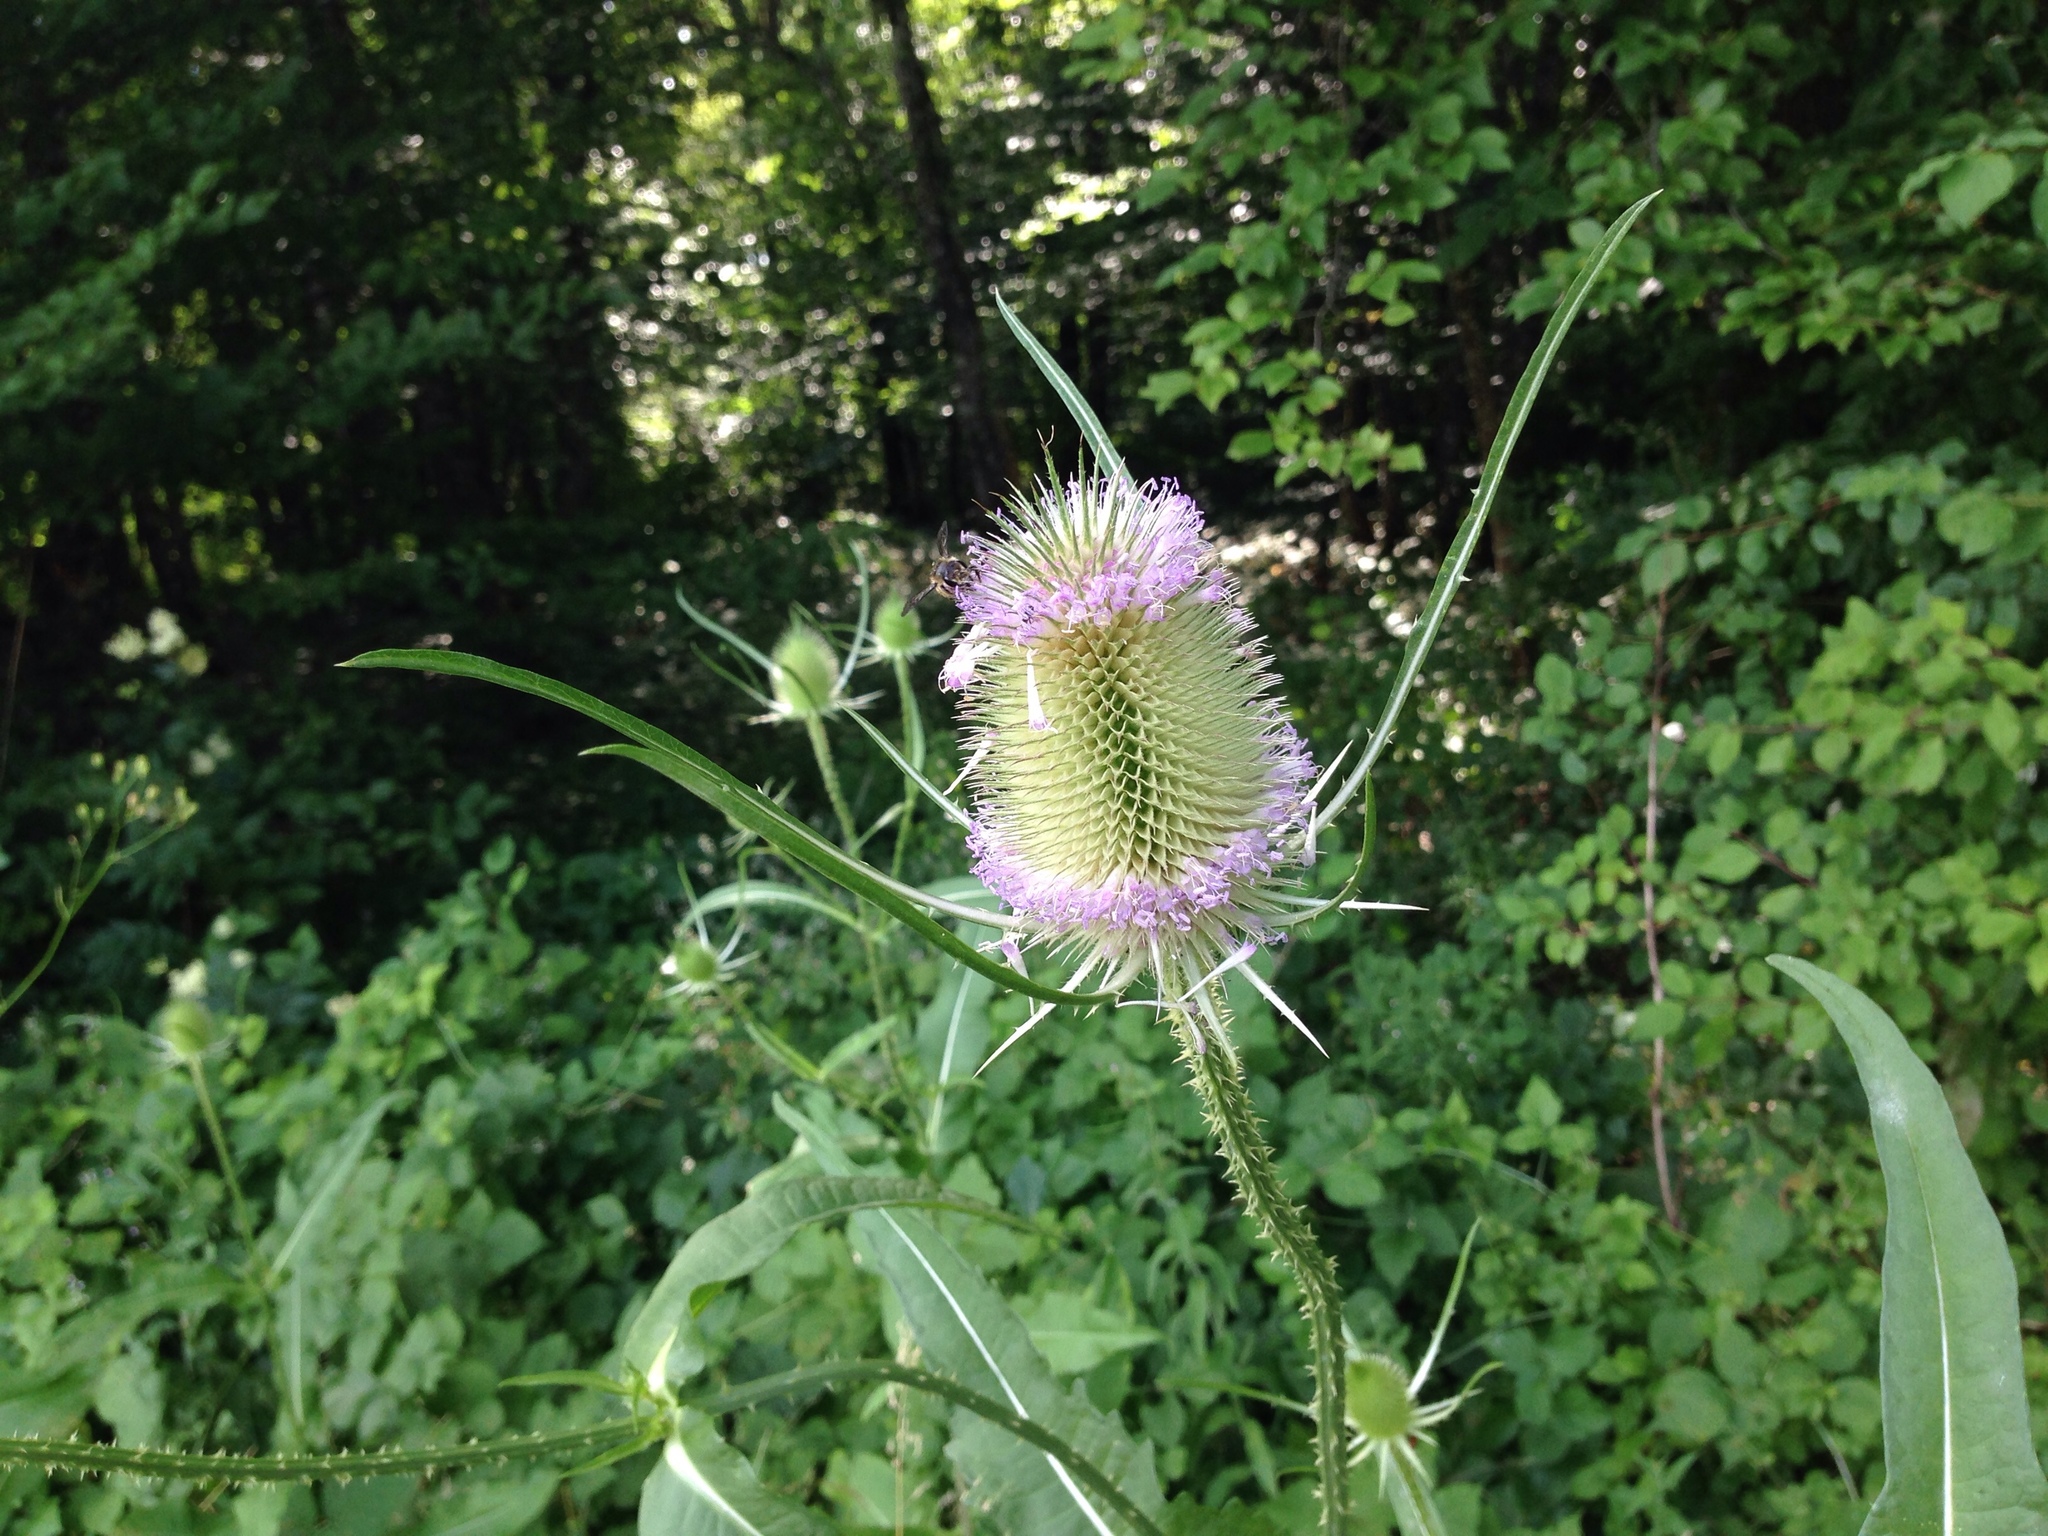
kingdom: Plantae
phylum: Tracheophyta
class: Magnoliopsida
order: Dipsacales
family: Caprifoliaceae
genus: Dipsacus
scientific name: Dipsacus fullonum
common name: Teasel
